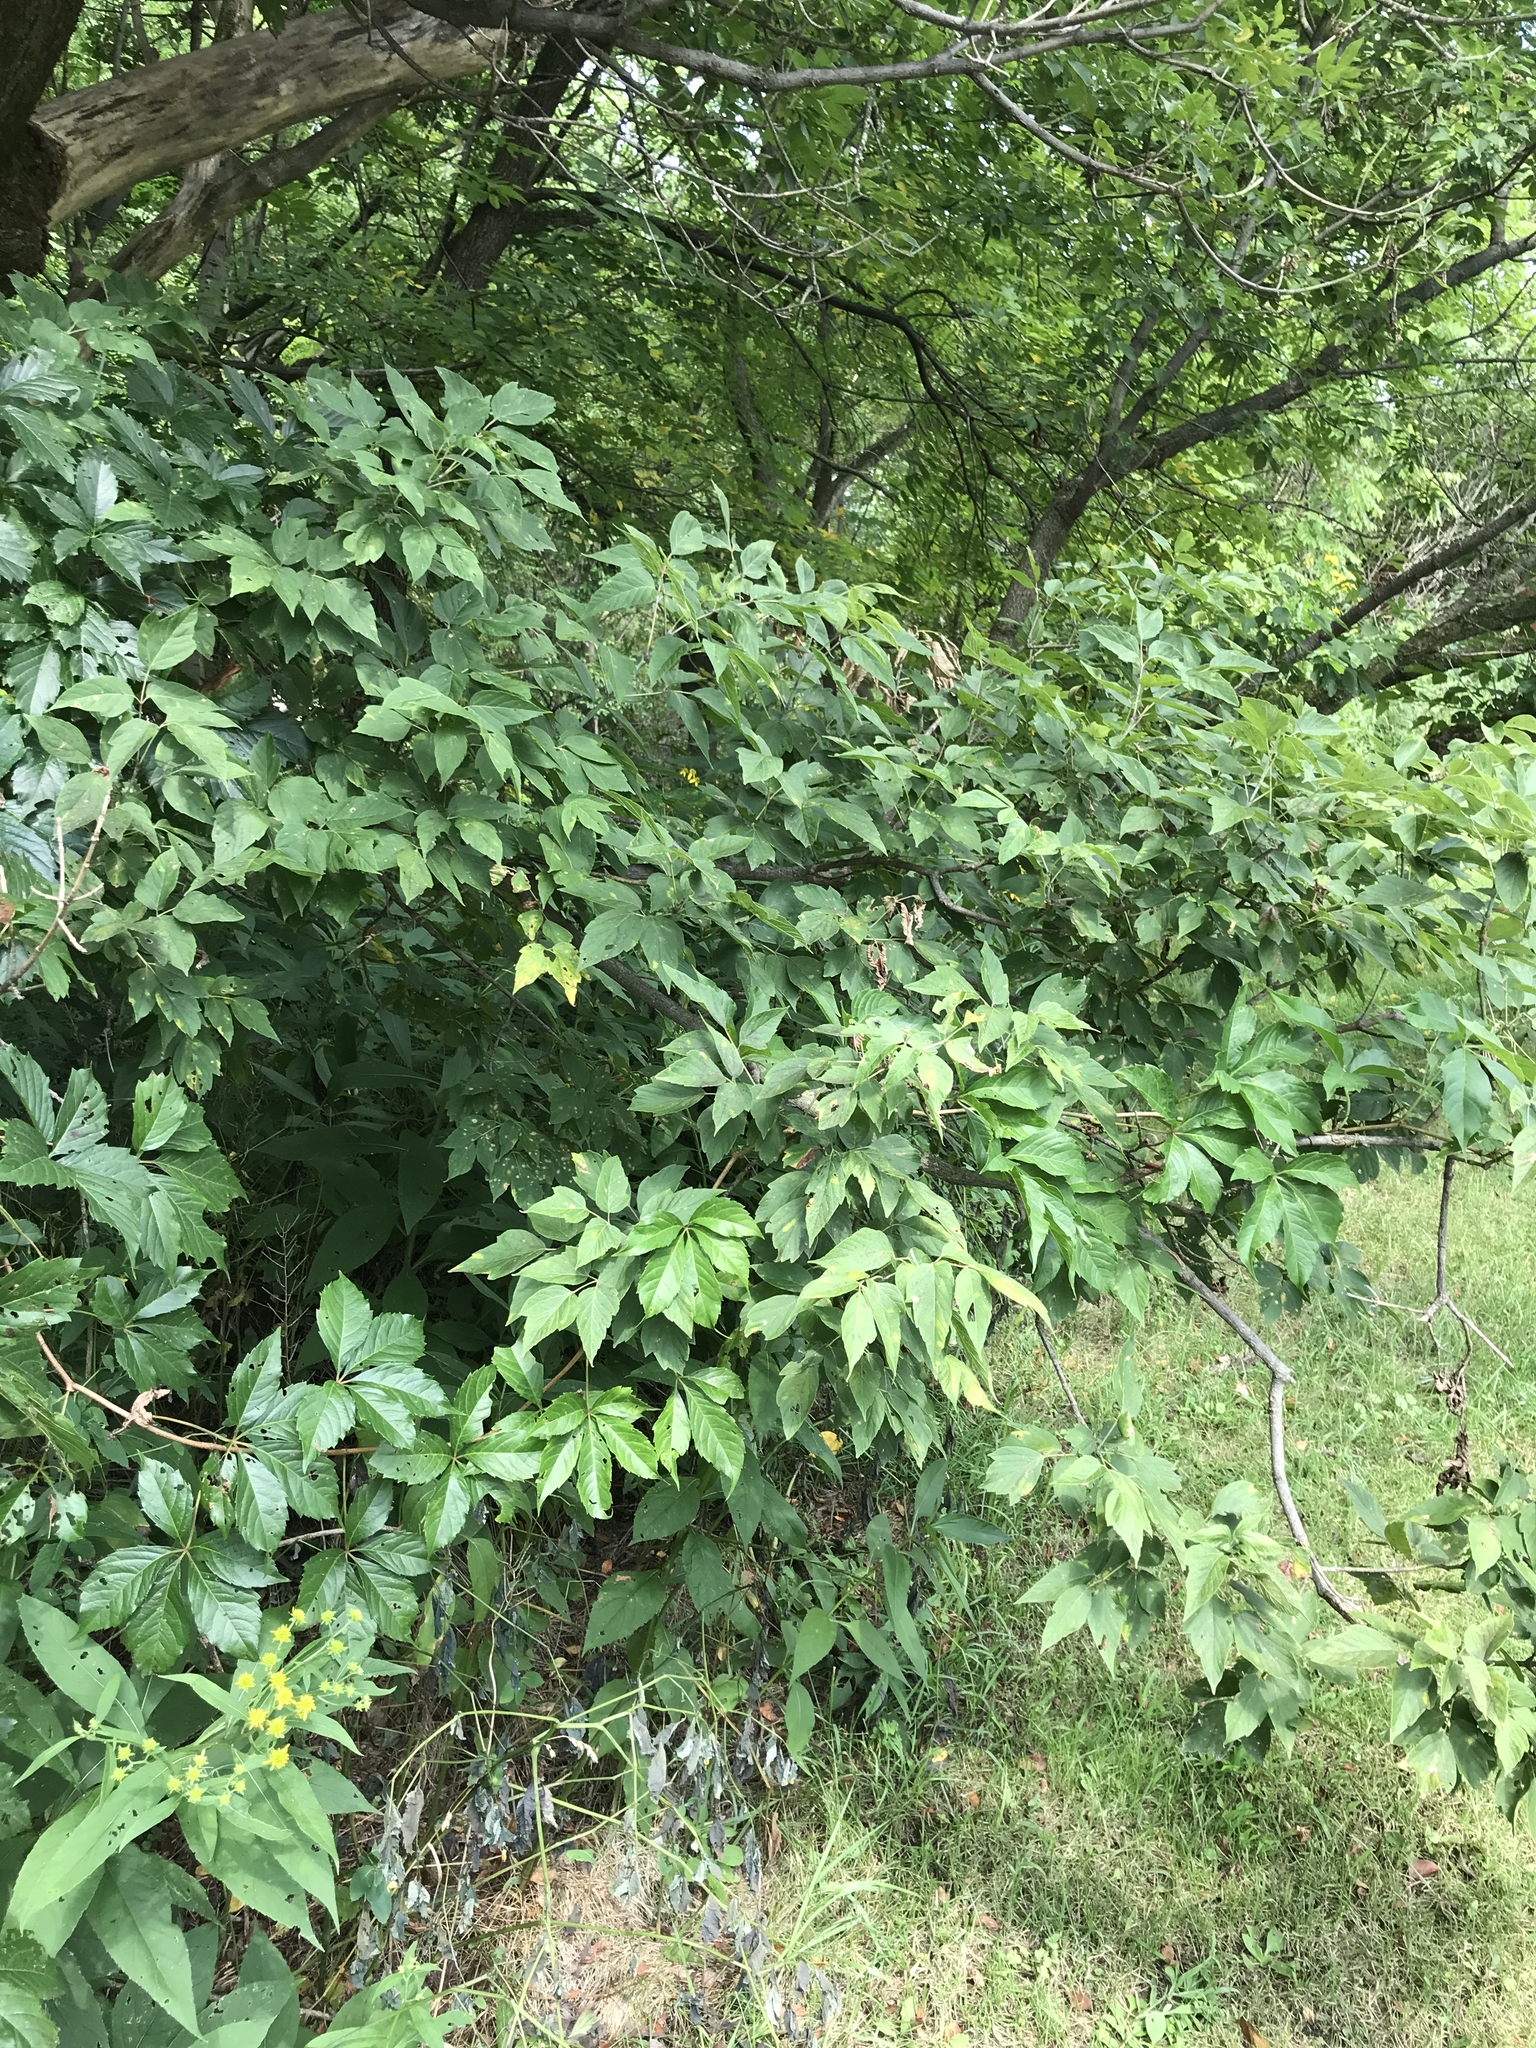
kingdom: Plantae
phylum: Tracheophyta
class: Magnoliopsida
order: Sapindales
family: Sapindaceae
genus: Acer
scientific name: Acer negundo
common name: Ashleaf maple
